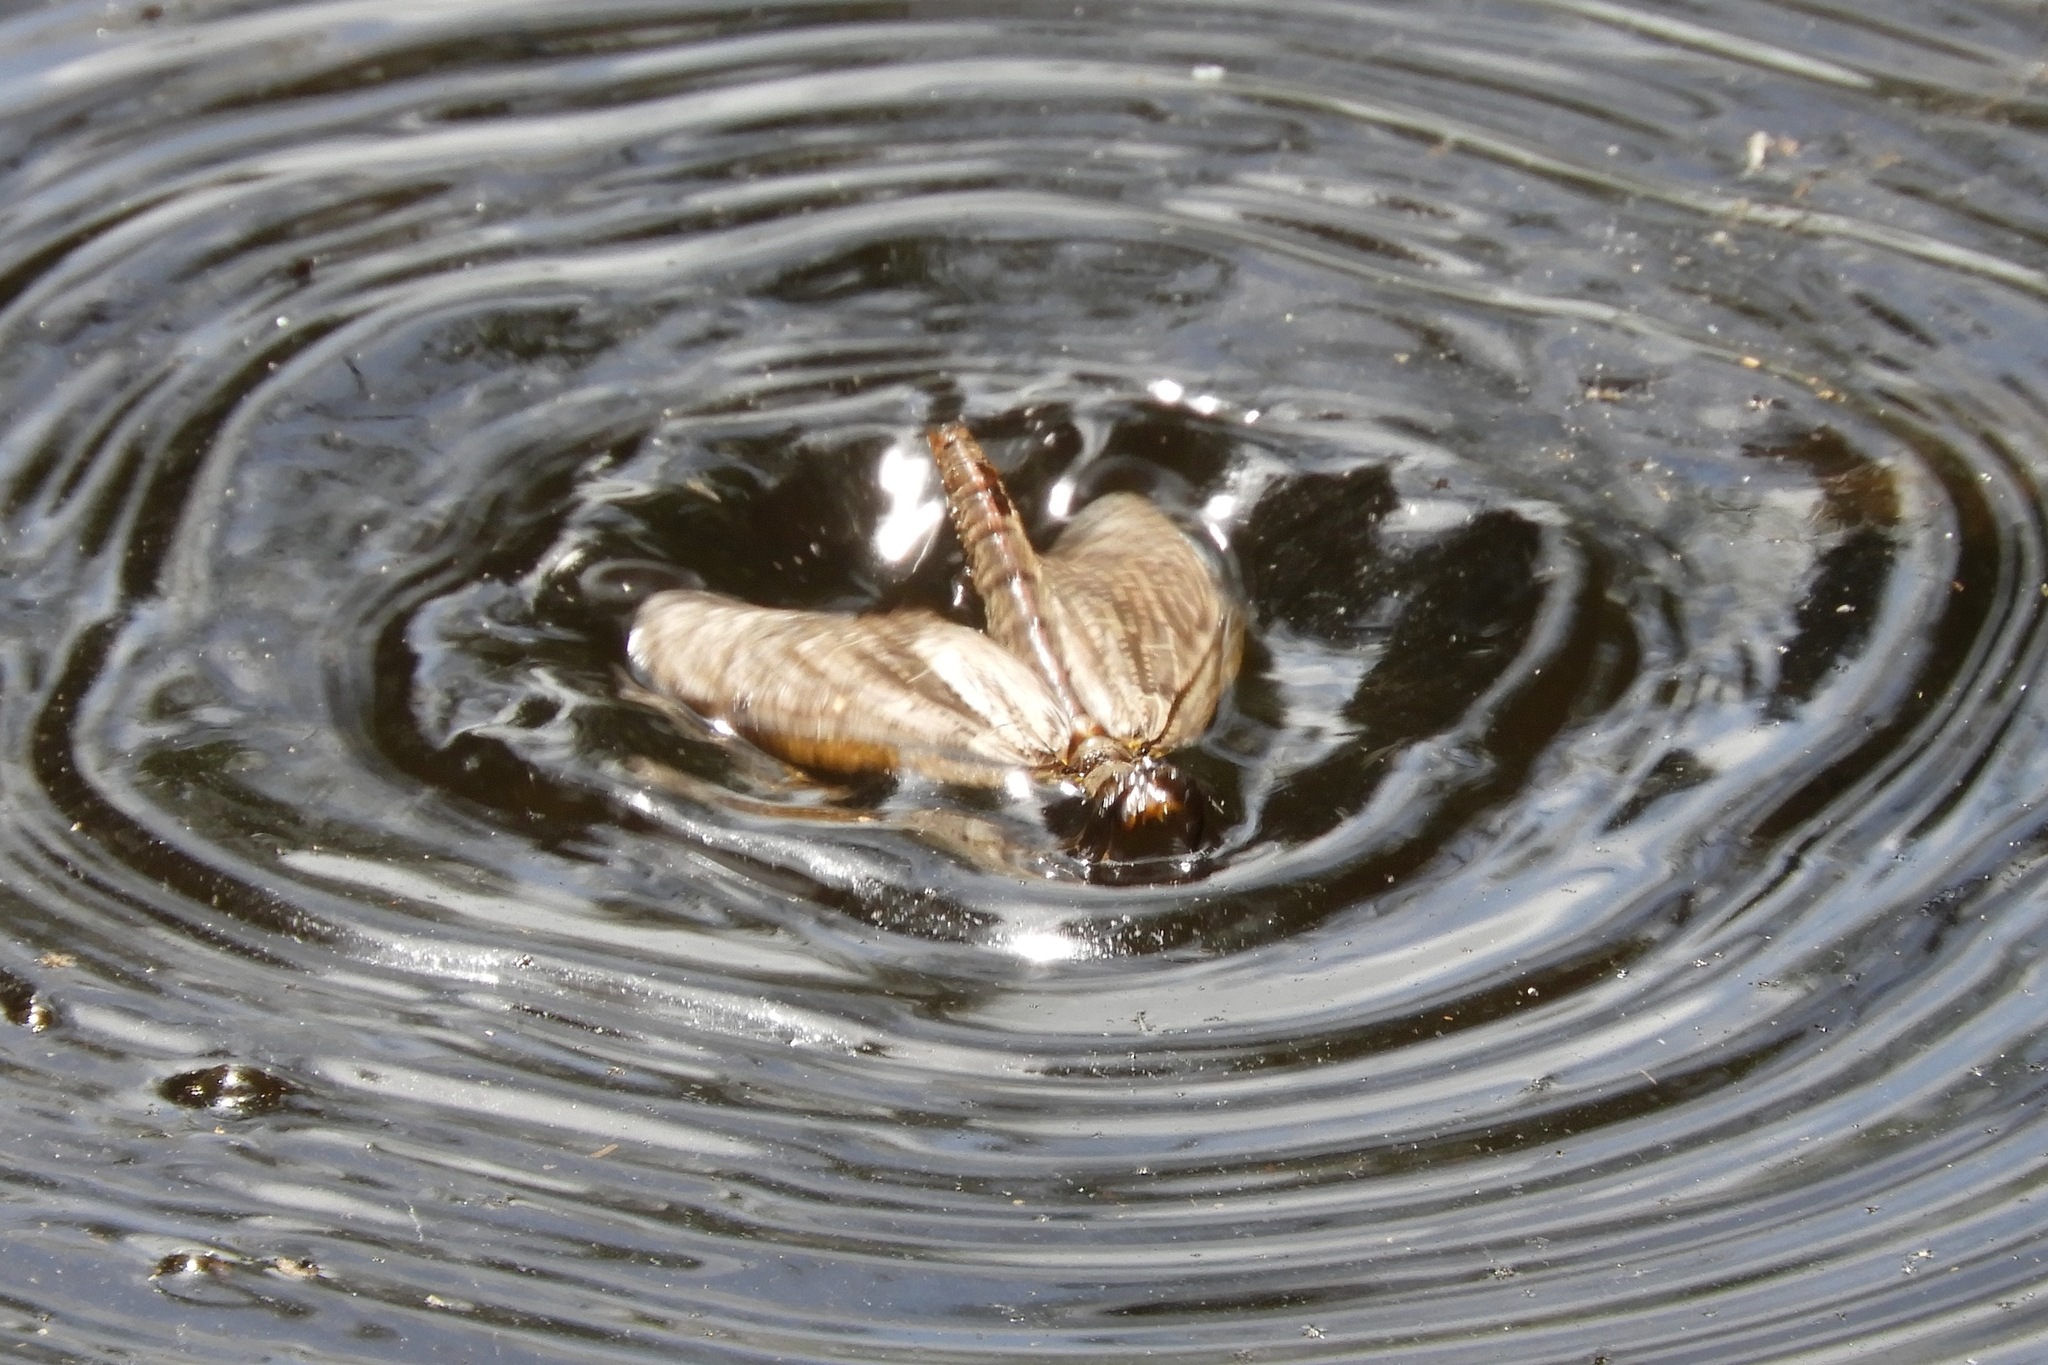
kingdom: Animalia
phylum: Arthropoda
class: Insecta
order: Megaloptera
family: Corydalidae
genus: Chauliodes
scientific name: Chauliodes pectinicornis
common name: Summer fishfly
